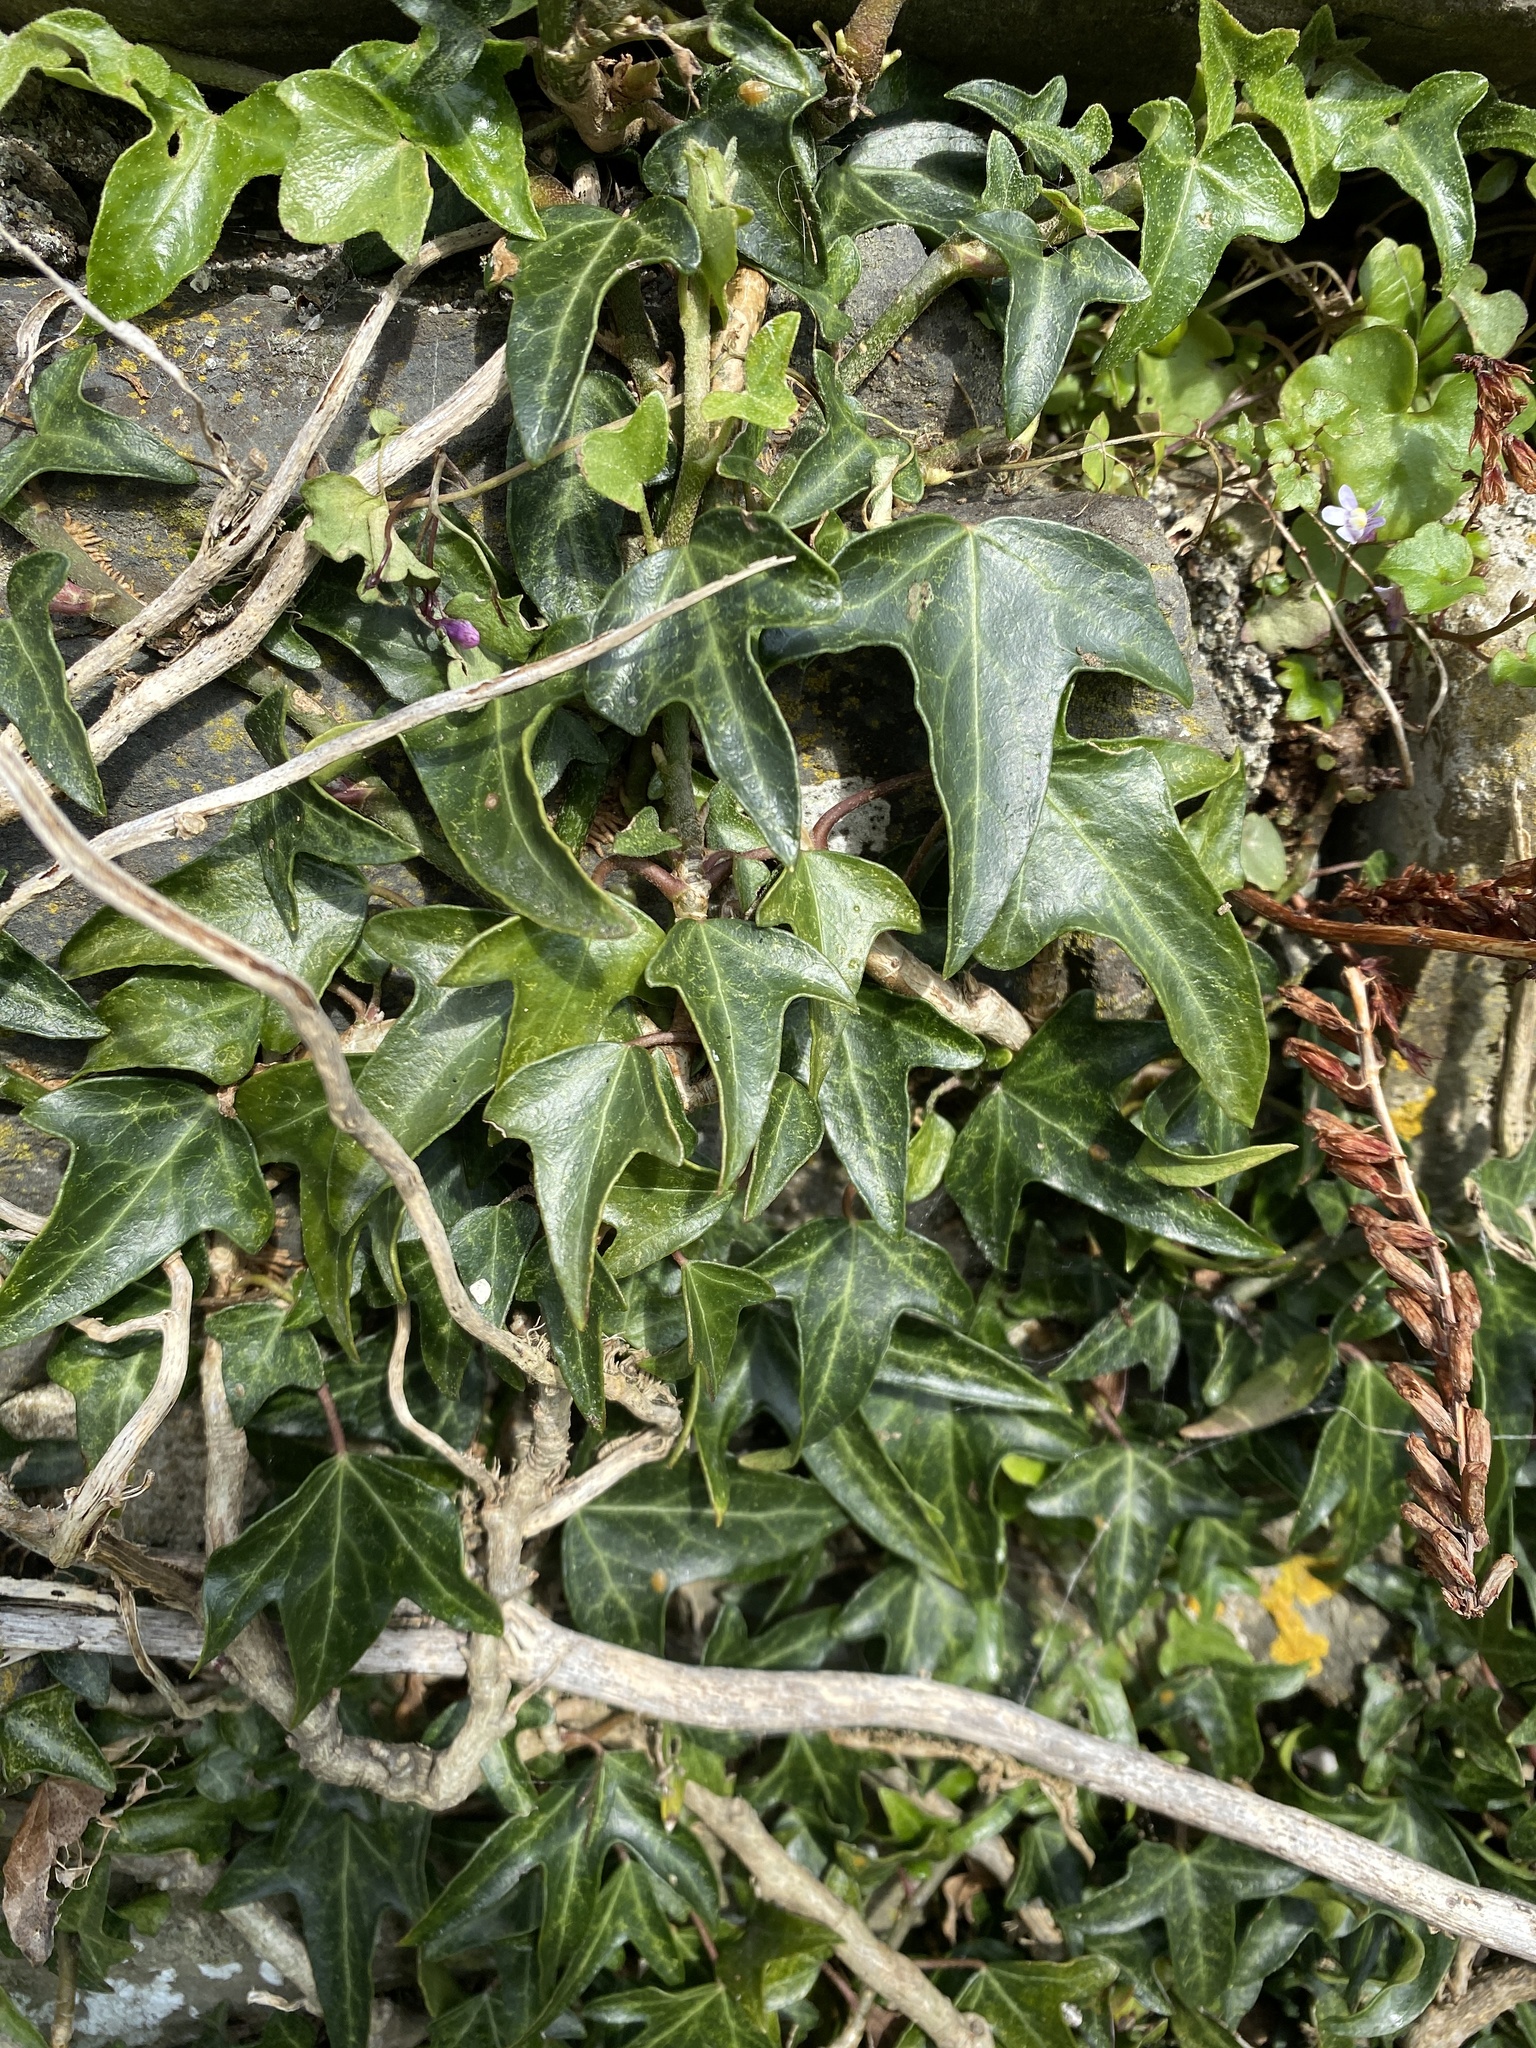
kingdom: Plantae
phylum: Tracheophyta
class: Magnoliopsida
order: Apiales
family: Araliaceae
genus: Hedera
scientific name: Hedera helix
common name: Ivy
